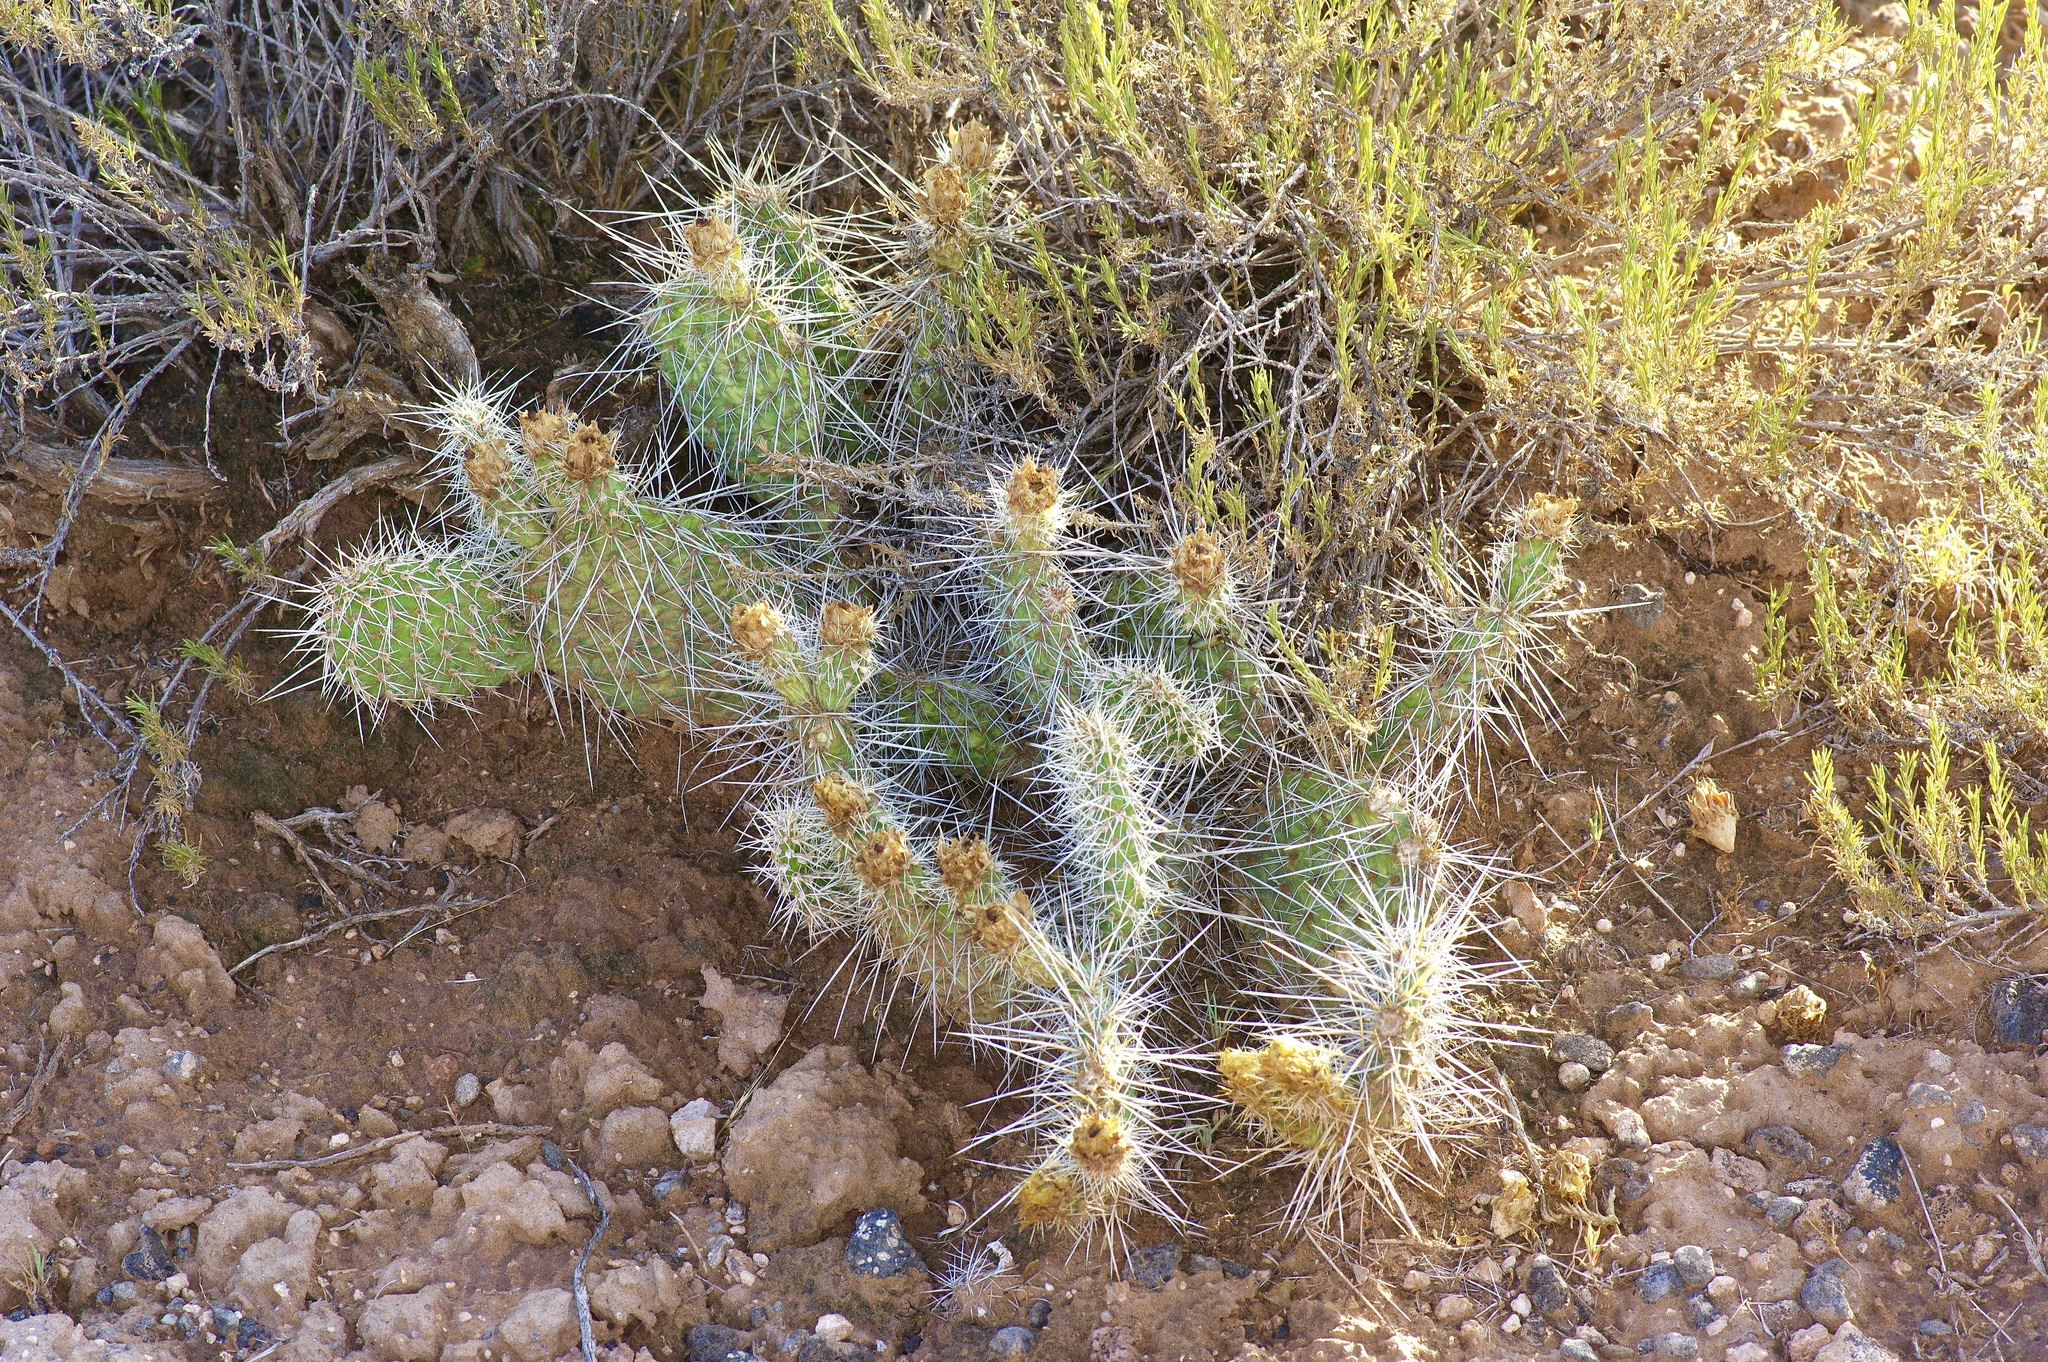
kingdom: Plantae
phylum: Tracheophyta
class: Magnoliopsida
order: Caryophyllales
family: Cactaceae
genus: Opuntia
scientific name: Opuntia polyacantha
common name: Plains prickly-pear
